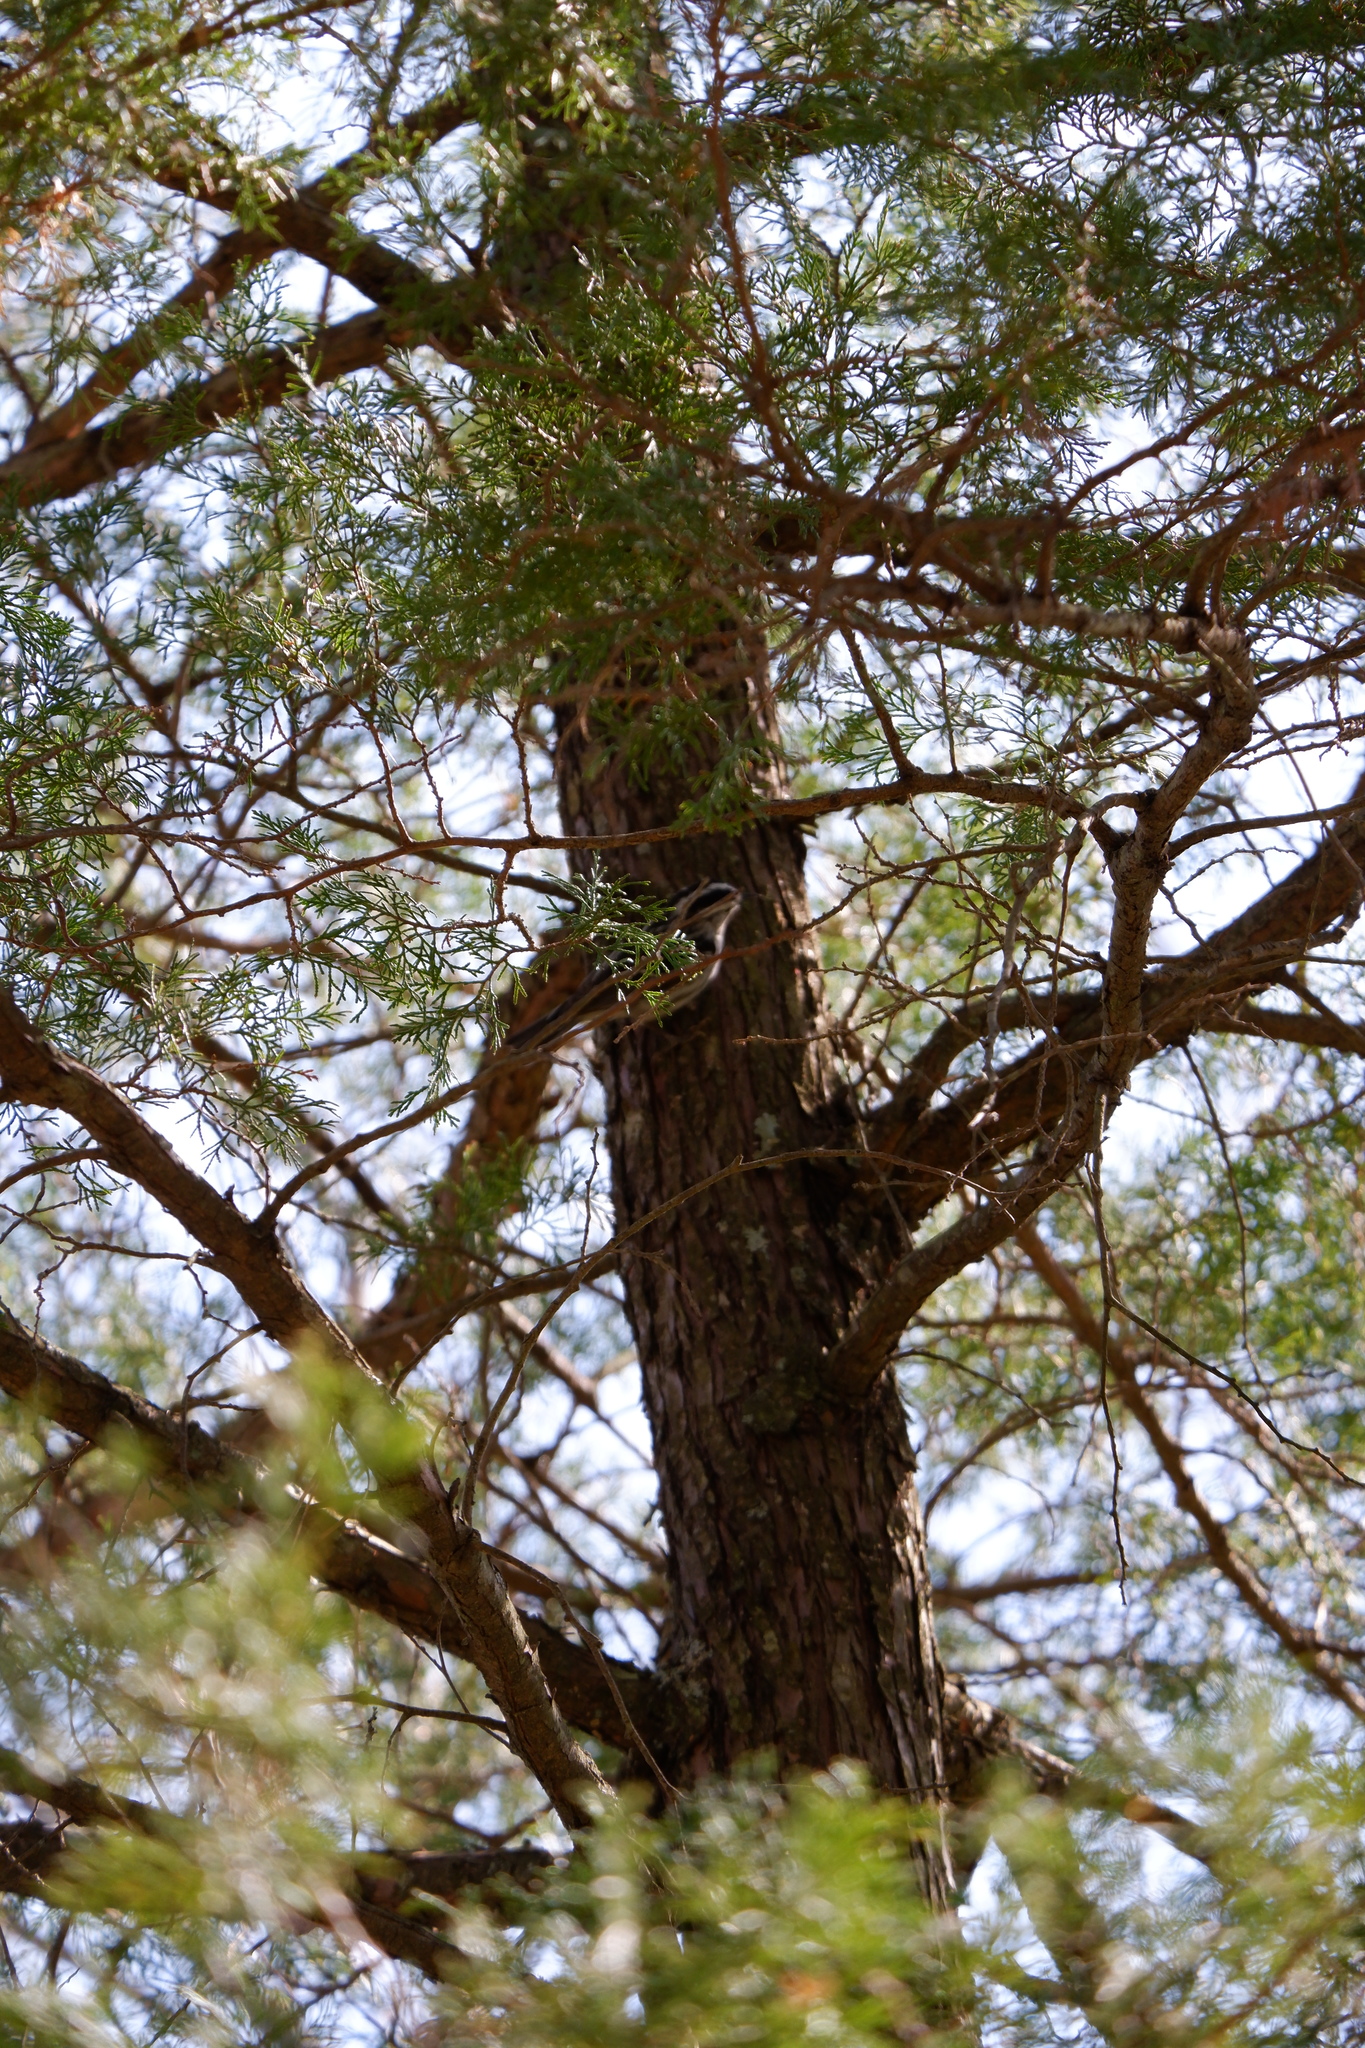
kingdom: Animalia
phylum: Chordata
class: Aves
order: Passeriformes
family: Parulidae
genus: Mniotilta
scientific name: Mniotilta varia
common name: Black-and-white warbler
